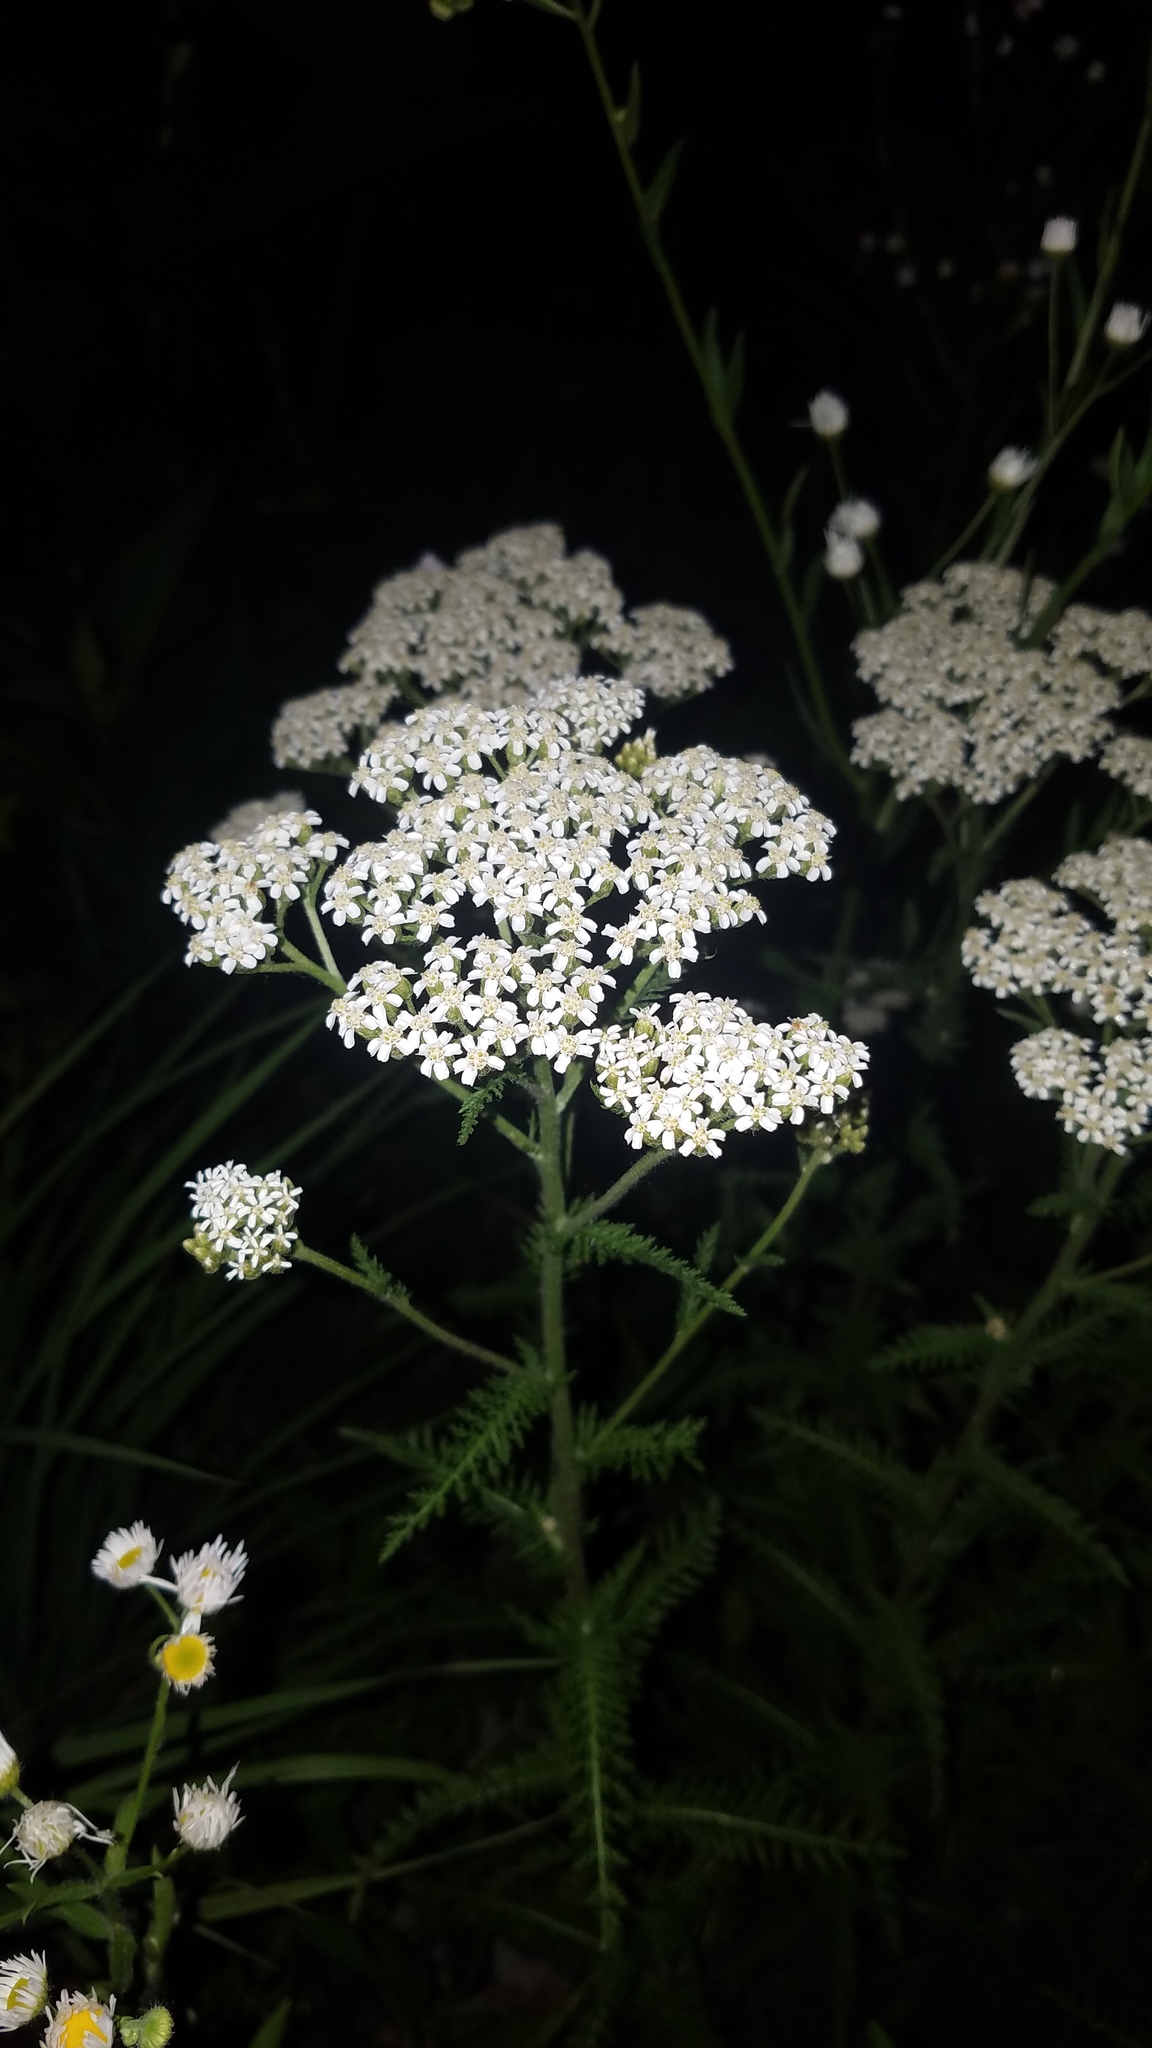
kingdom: Plantae
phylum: Tracheophyta
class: Magnoliopsida
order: Asterales
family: Asteraceae
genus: Achillea
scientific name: Achillea millefolium
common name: Yarrow
